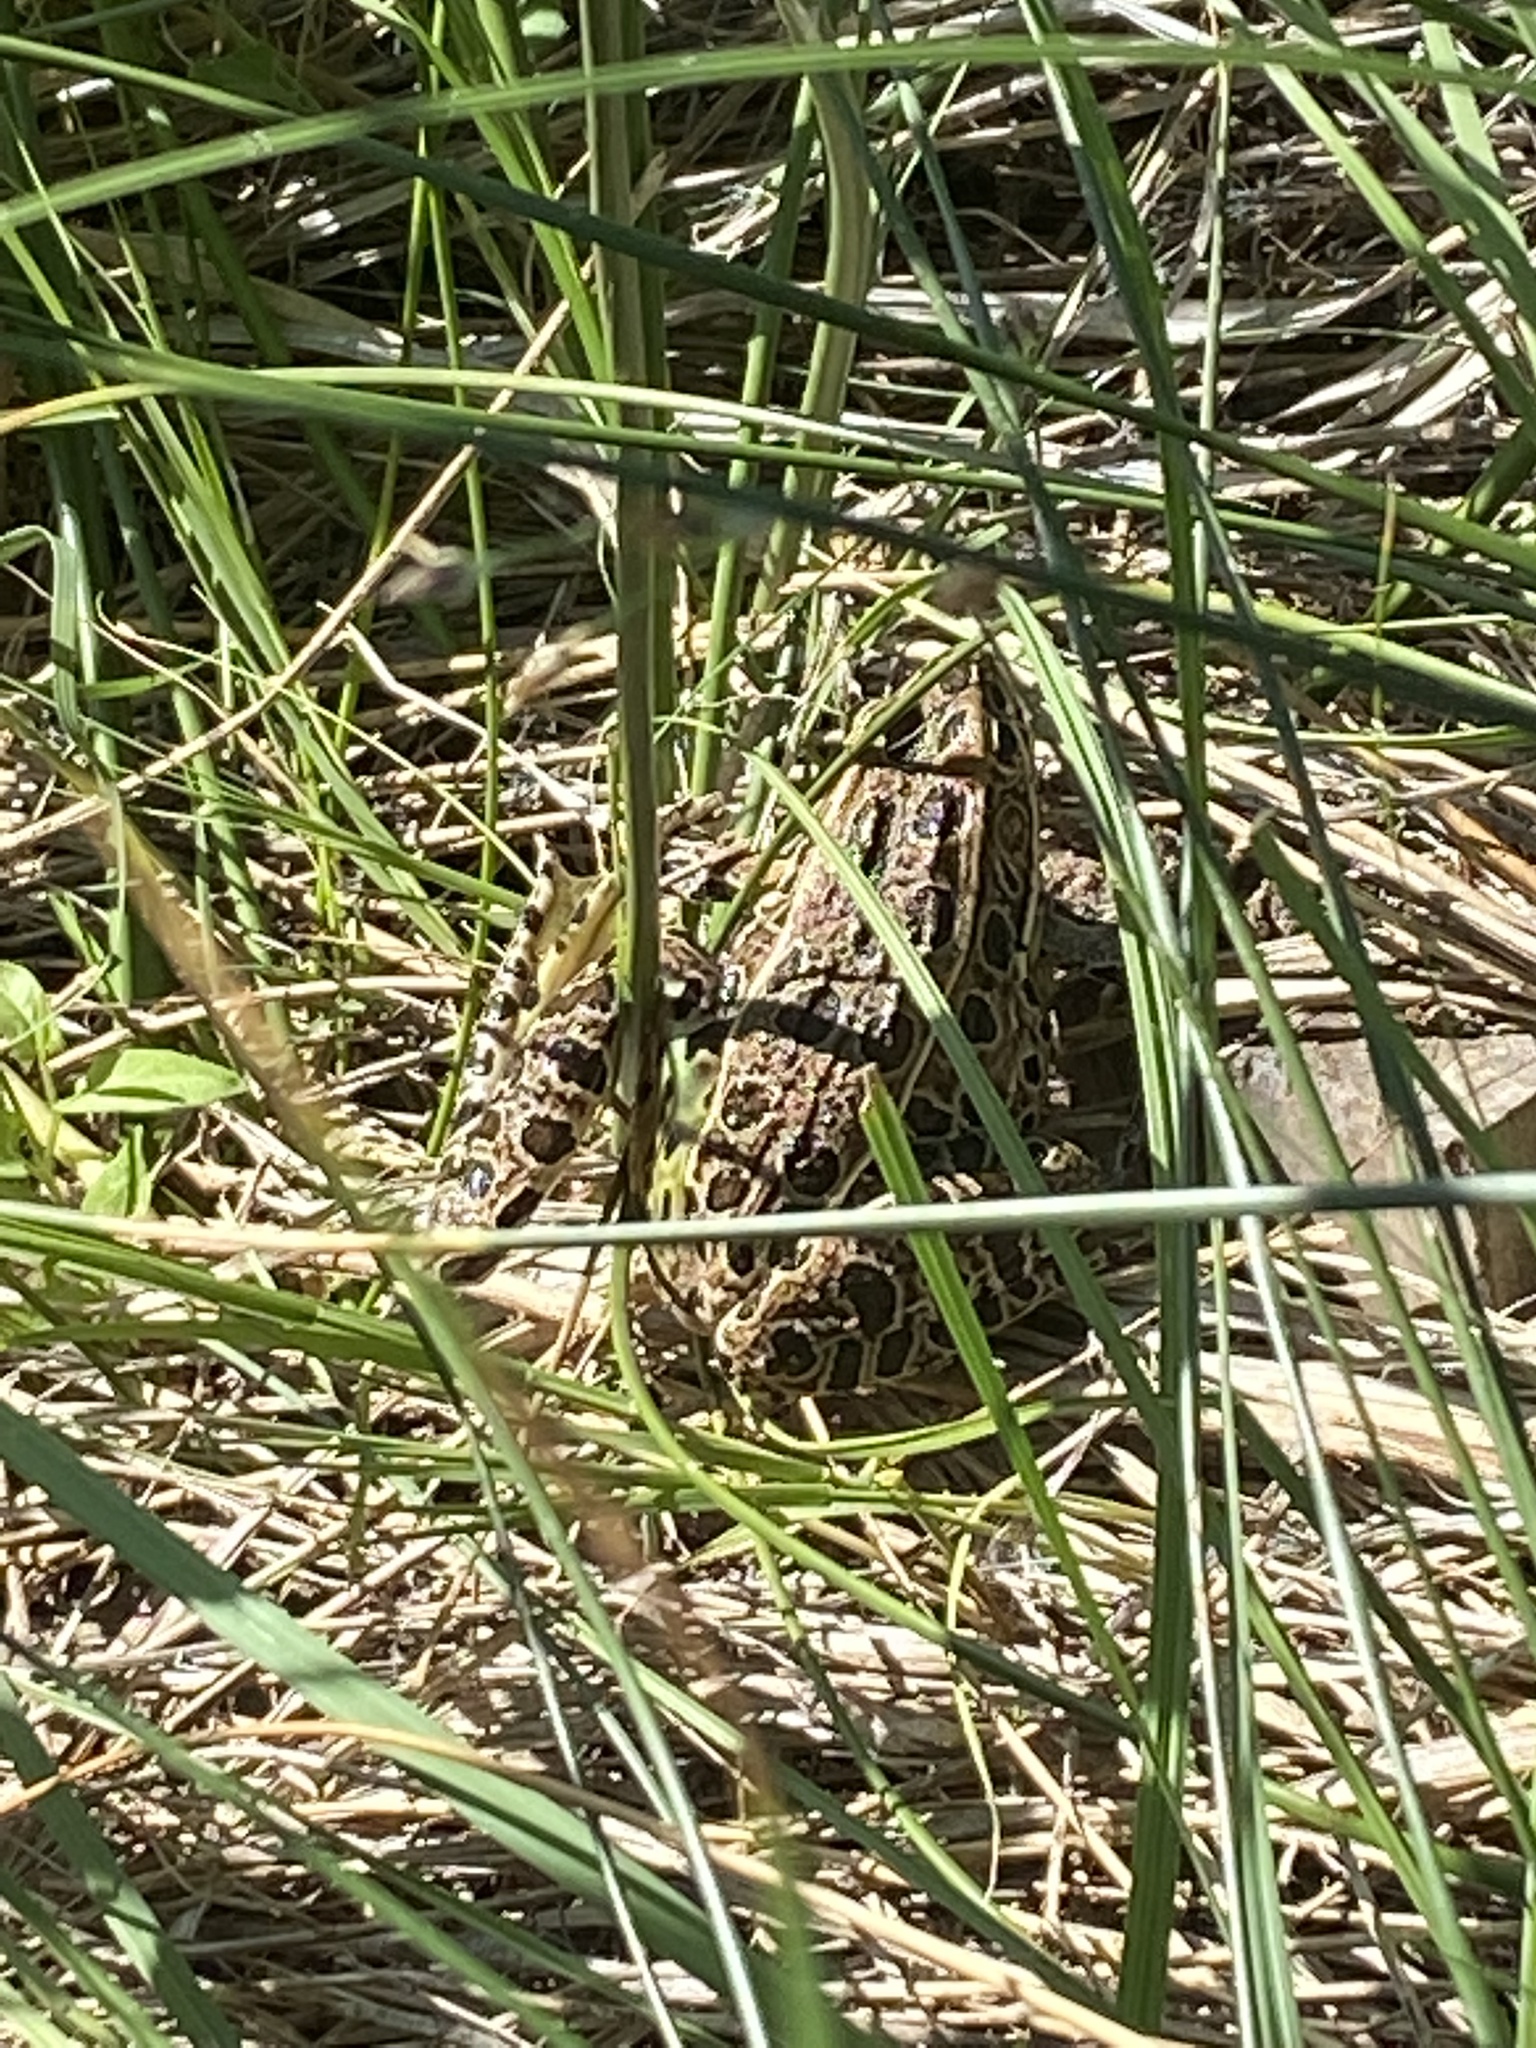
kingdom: Animalia
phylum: Chordata
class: Amphibia
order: Anura
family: Ranidae
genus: Lithobates
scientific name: Lithobates pipiens
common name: Northern leopard frog
